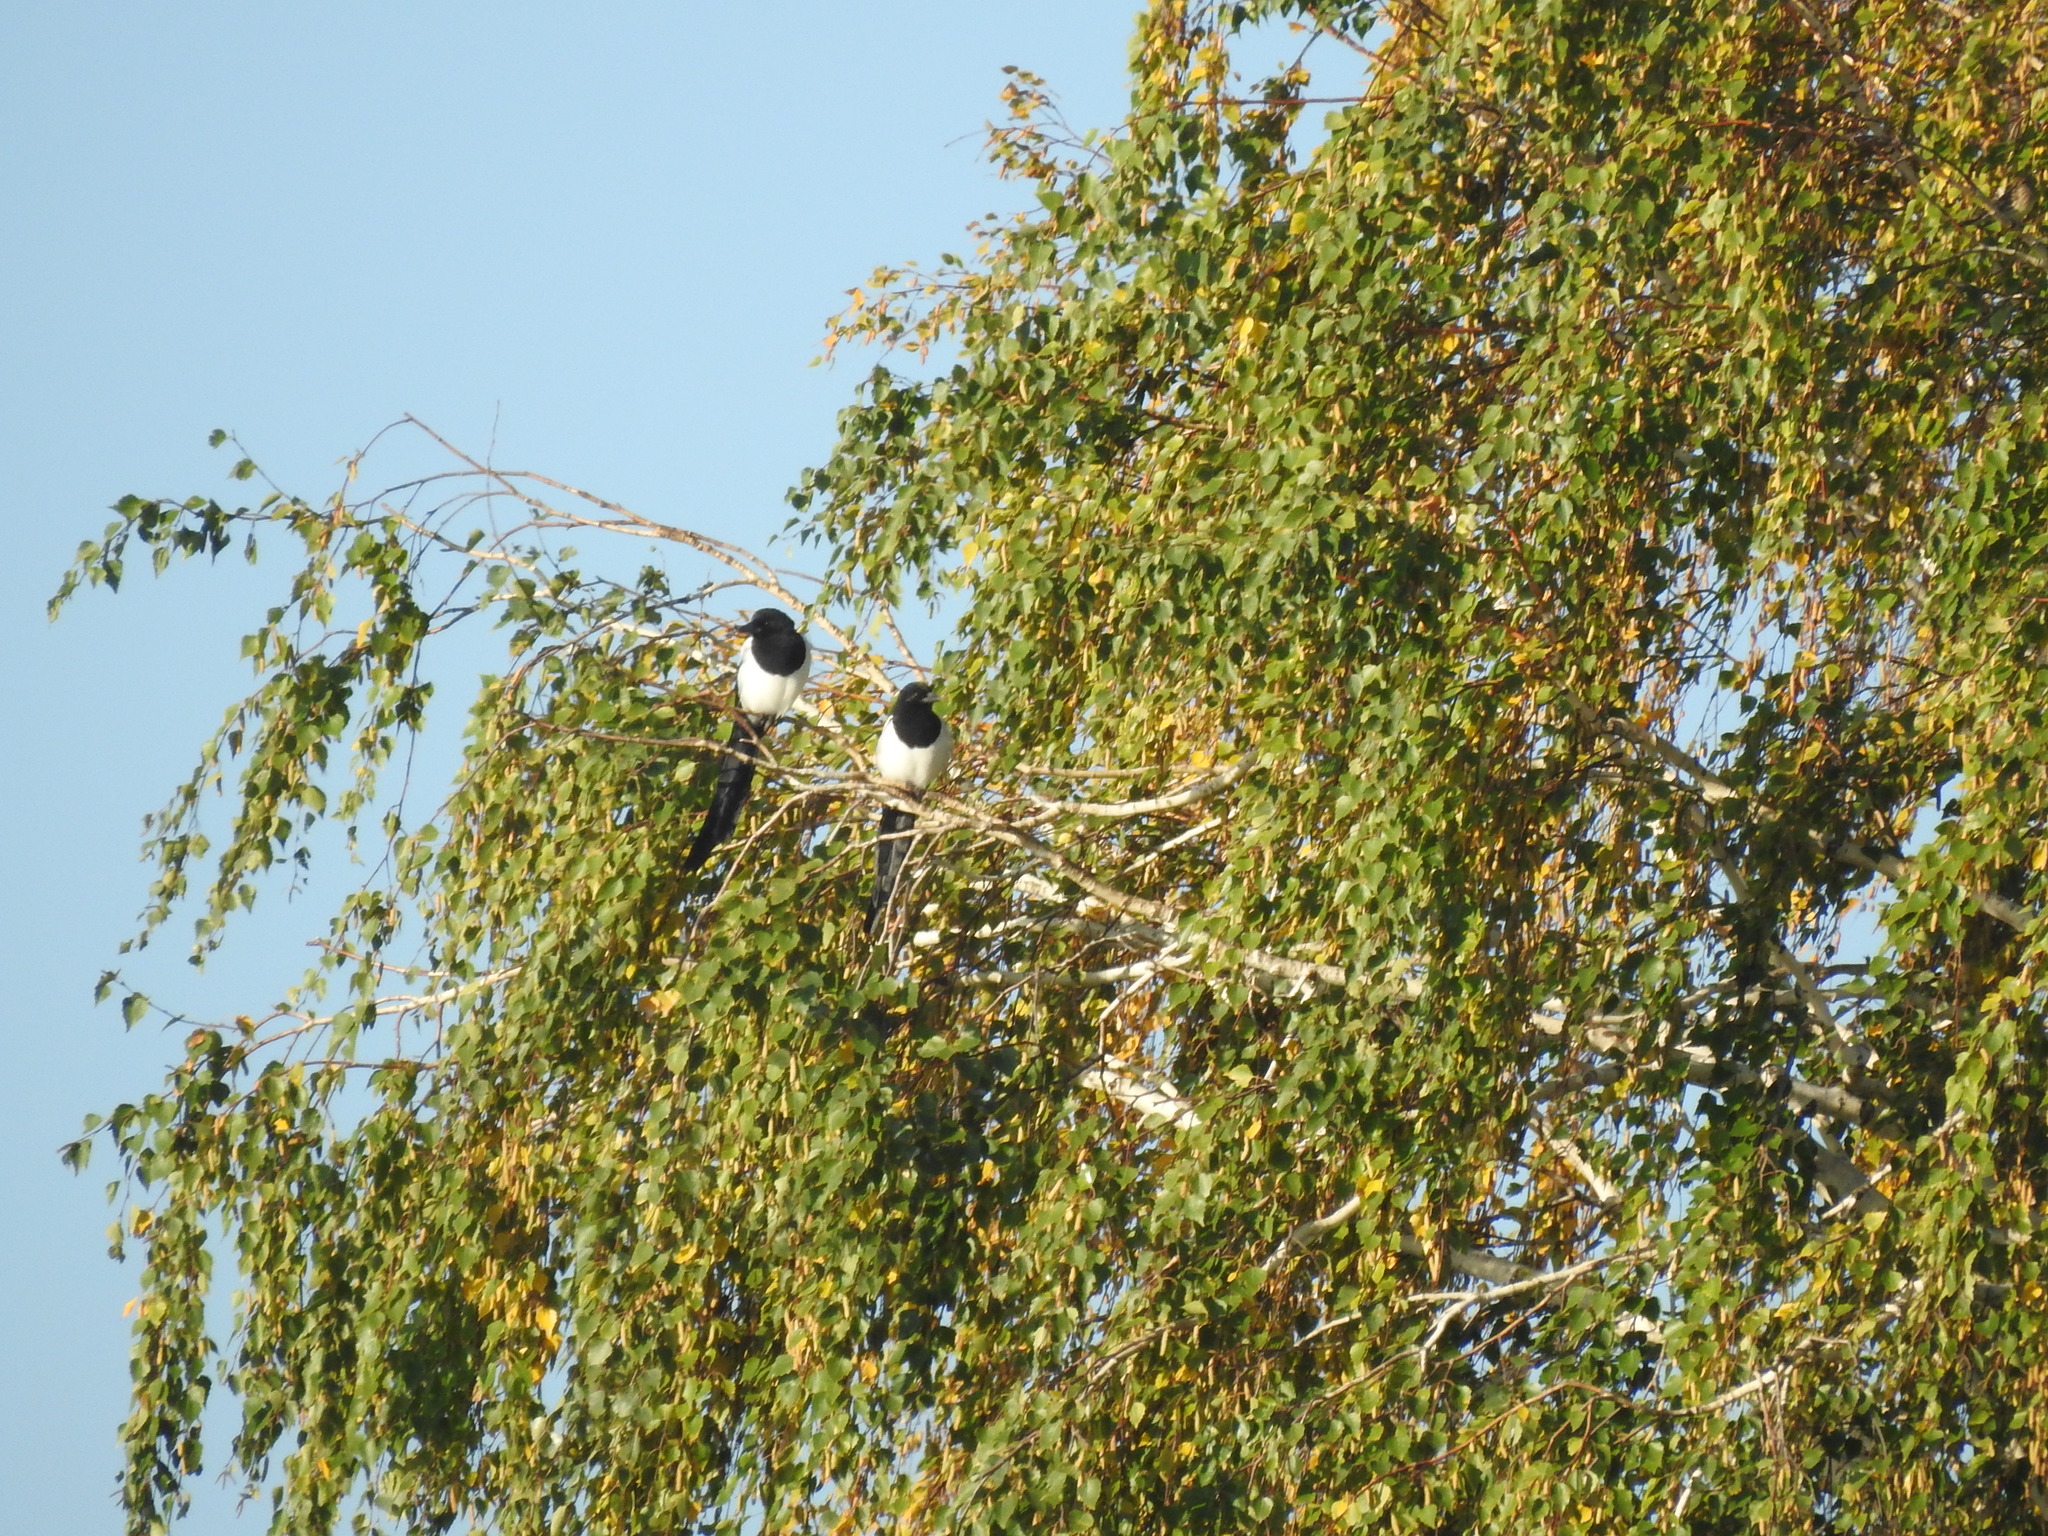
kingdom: Animalia
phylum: Chordata
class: Aves
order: Passeriformes
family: Corvidae
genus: Pica
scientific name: Pica pica
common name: Eurasian magpie
